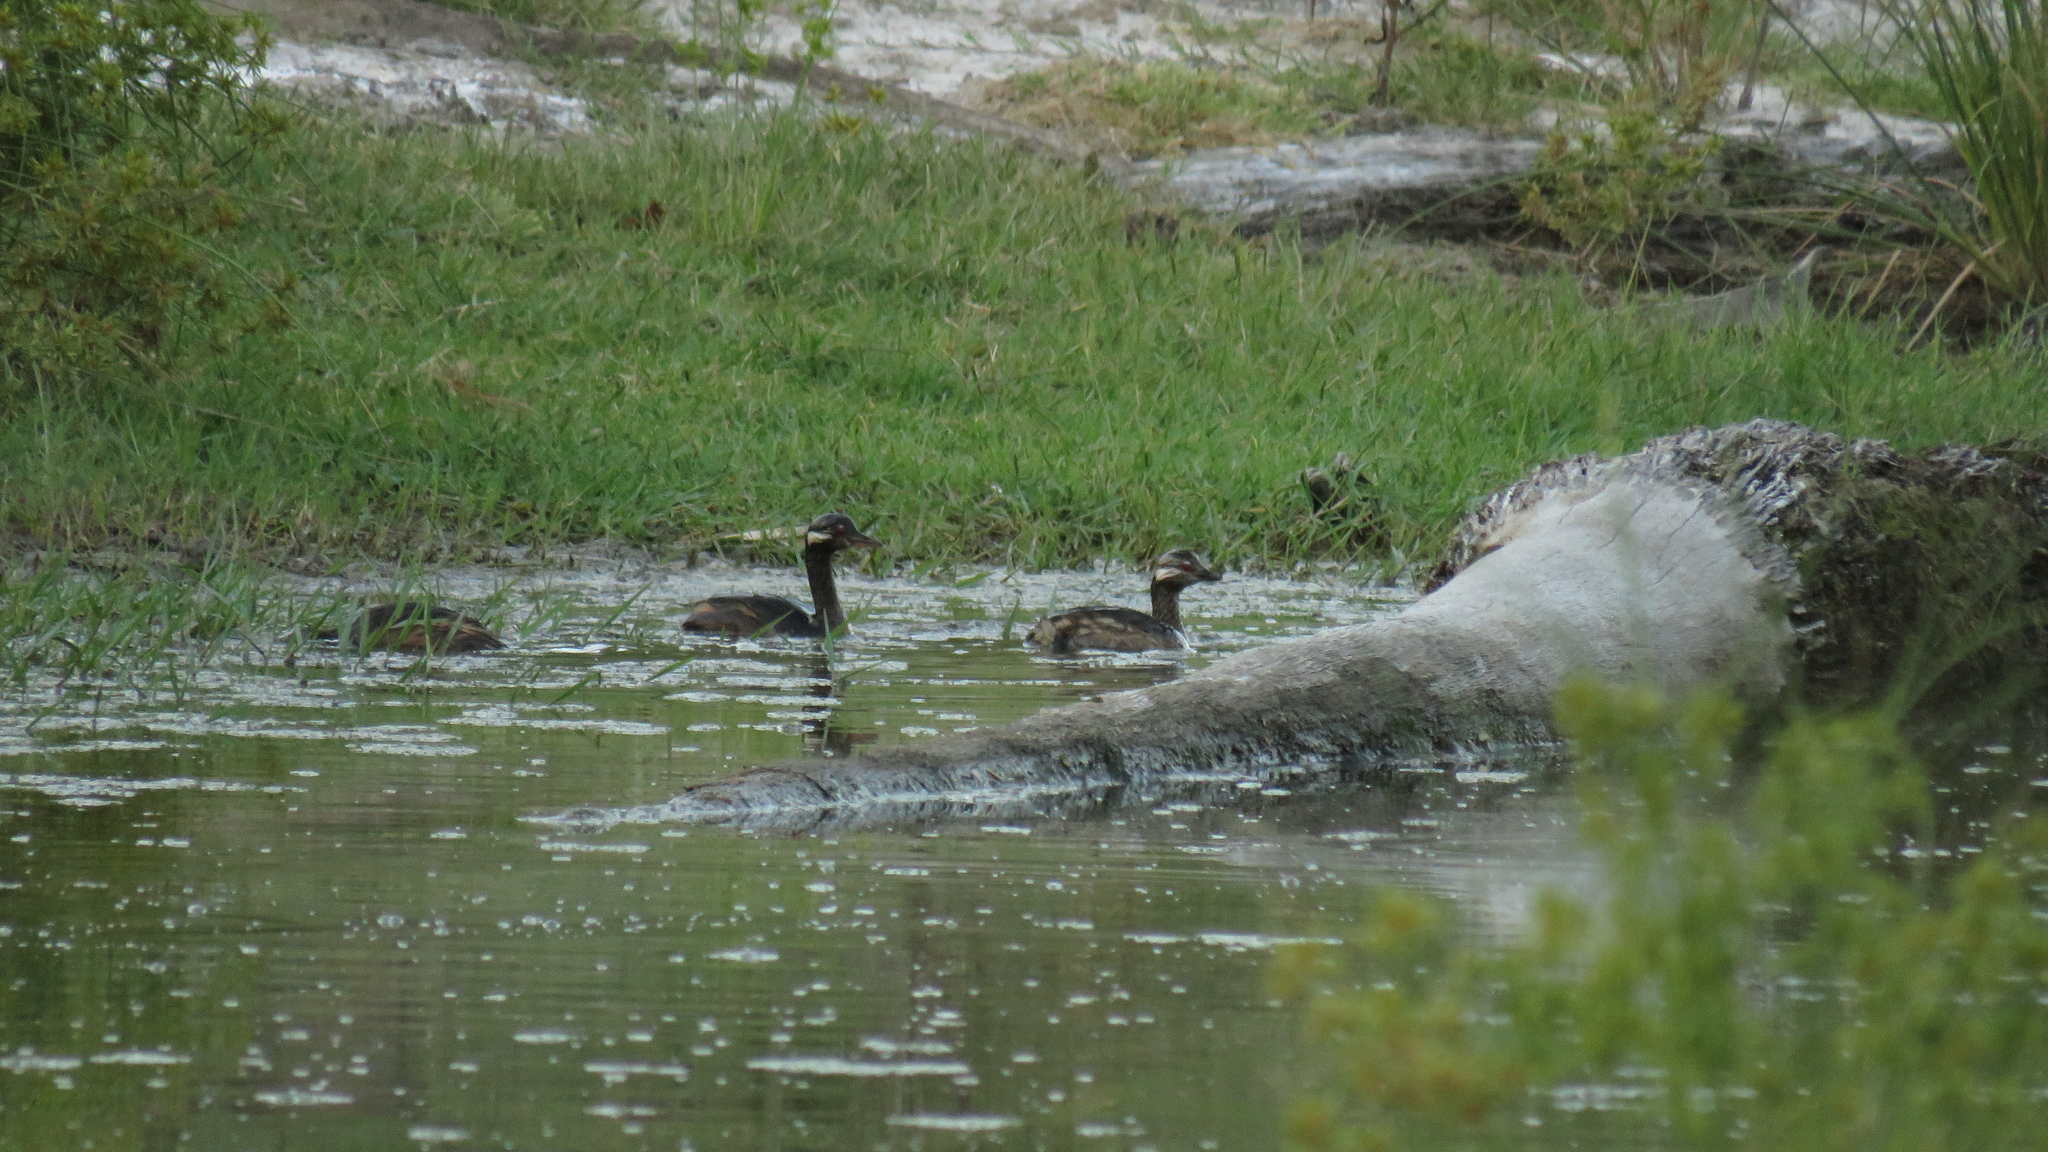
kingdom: Animalia
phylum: Chordata
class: Aves
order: Podicipediformes
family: Podicipedidae
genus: Rollandia
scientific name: Rollandia rolland
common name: White-tufted grebe
